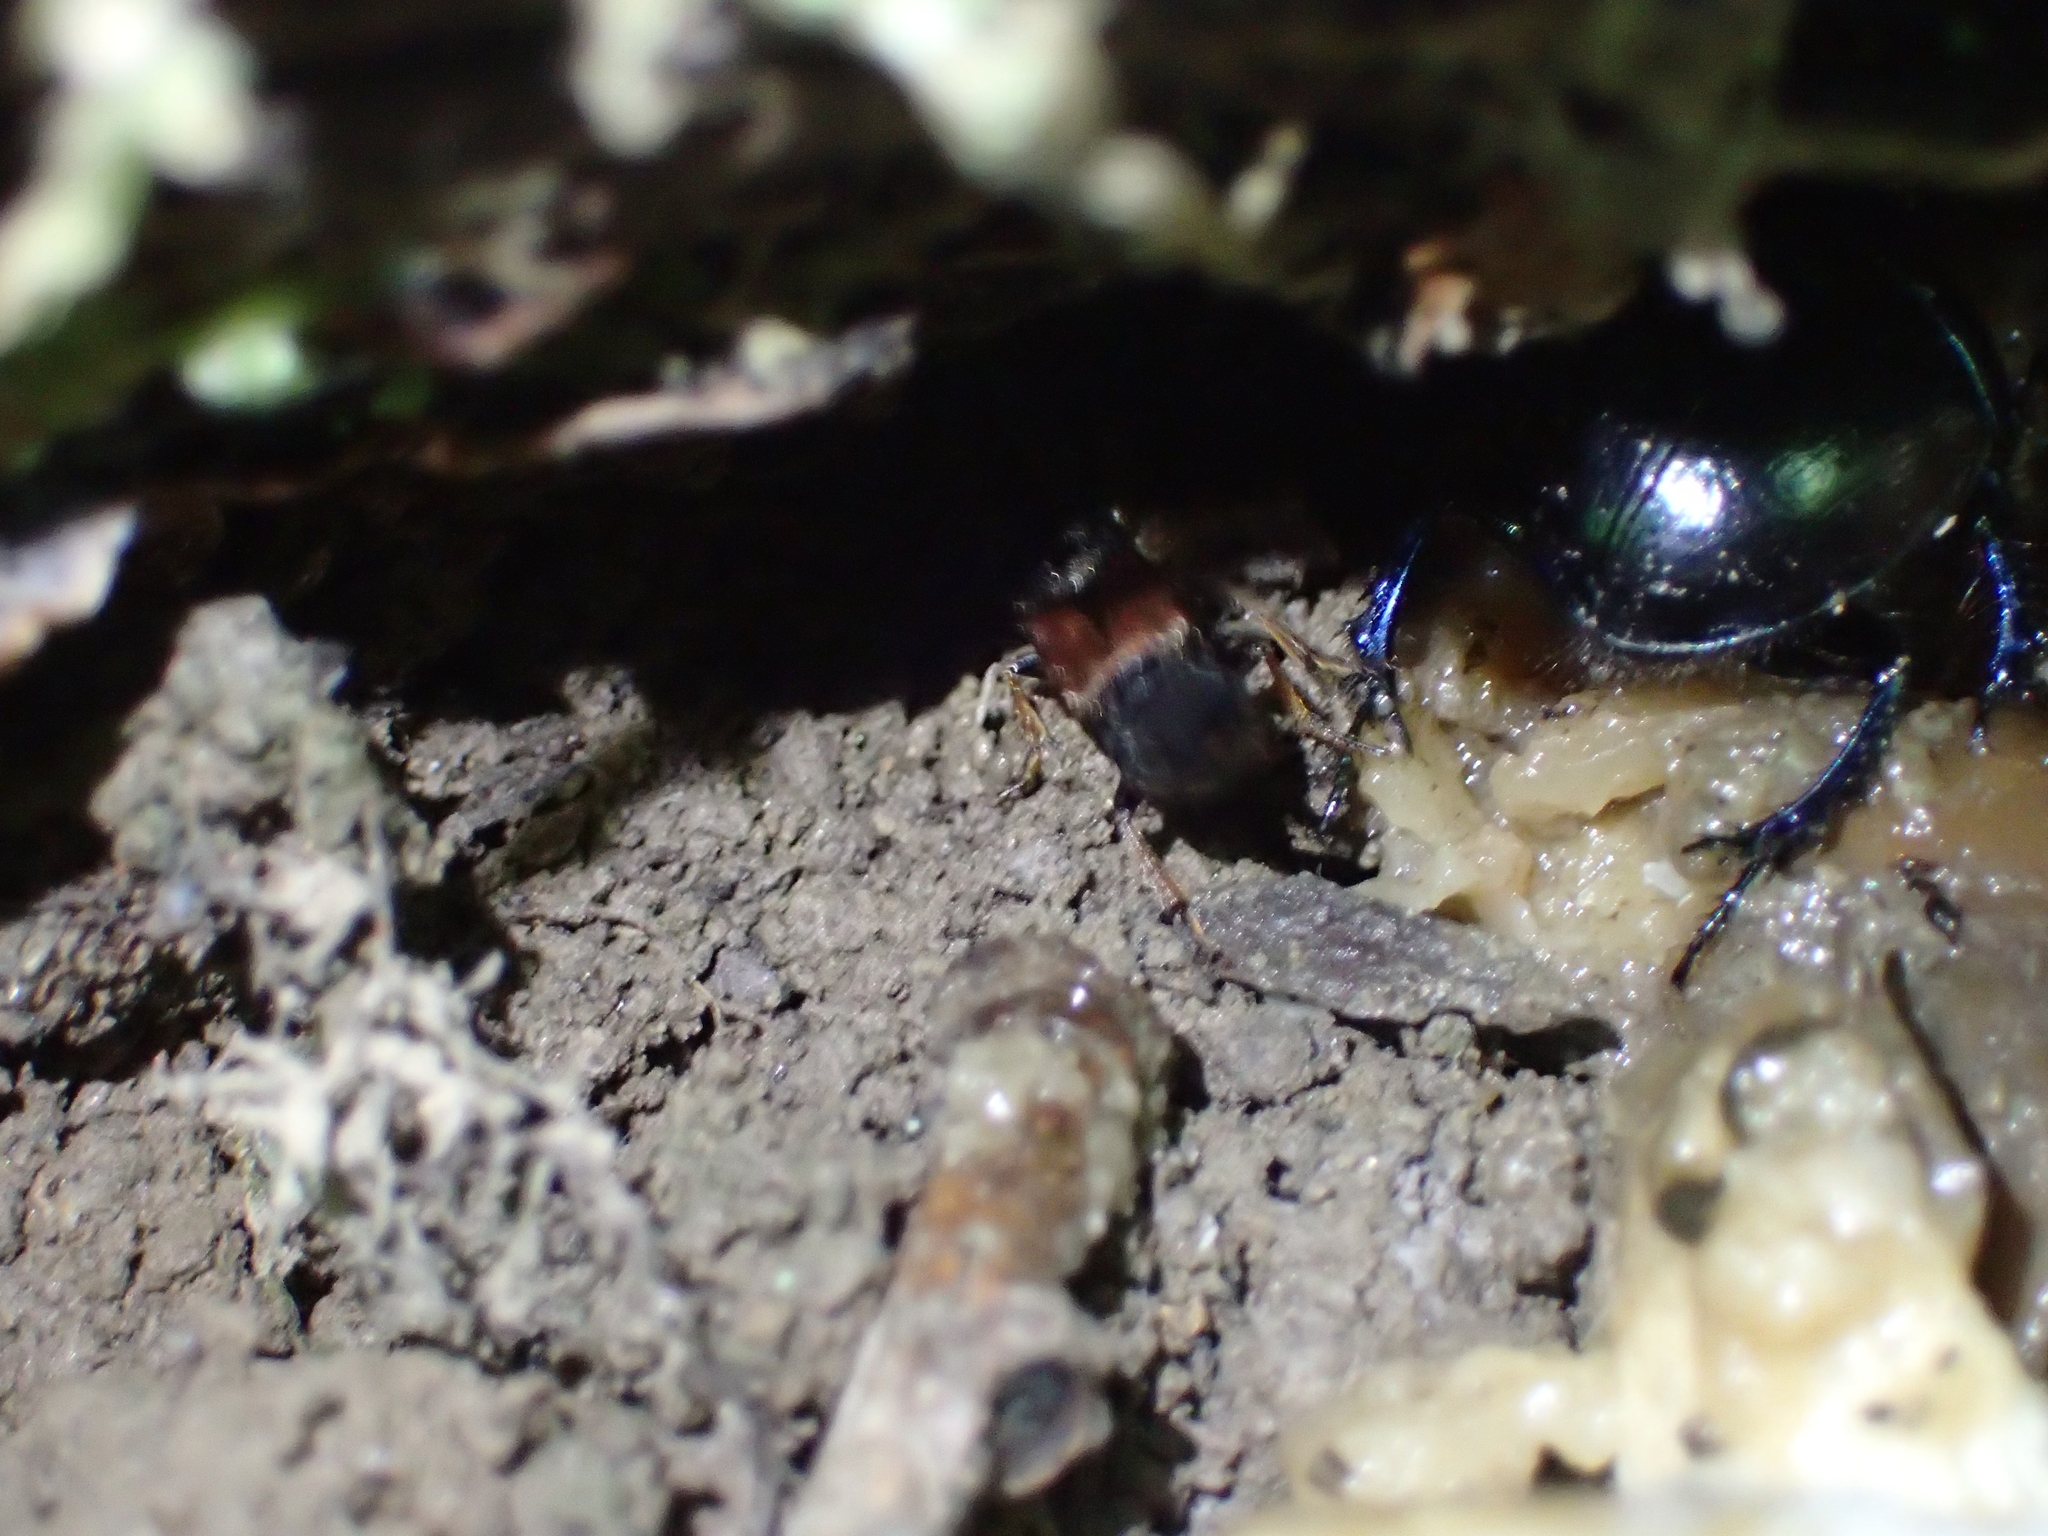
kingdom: Animalia
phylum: Arthropoda
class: Insecta
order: Coleoptera
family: Staphylinidae
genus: Platydracus
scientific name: Platydracus chalcocephalus
